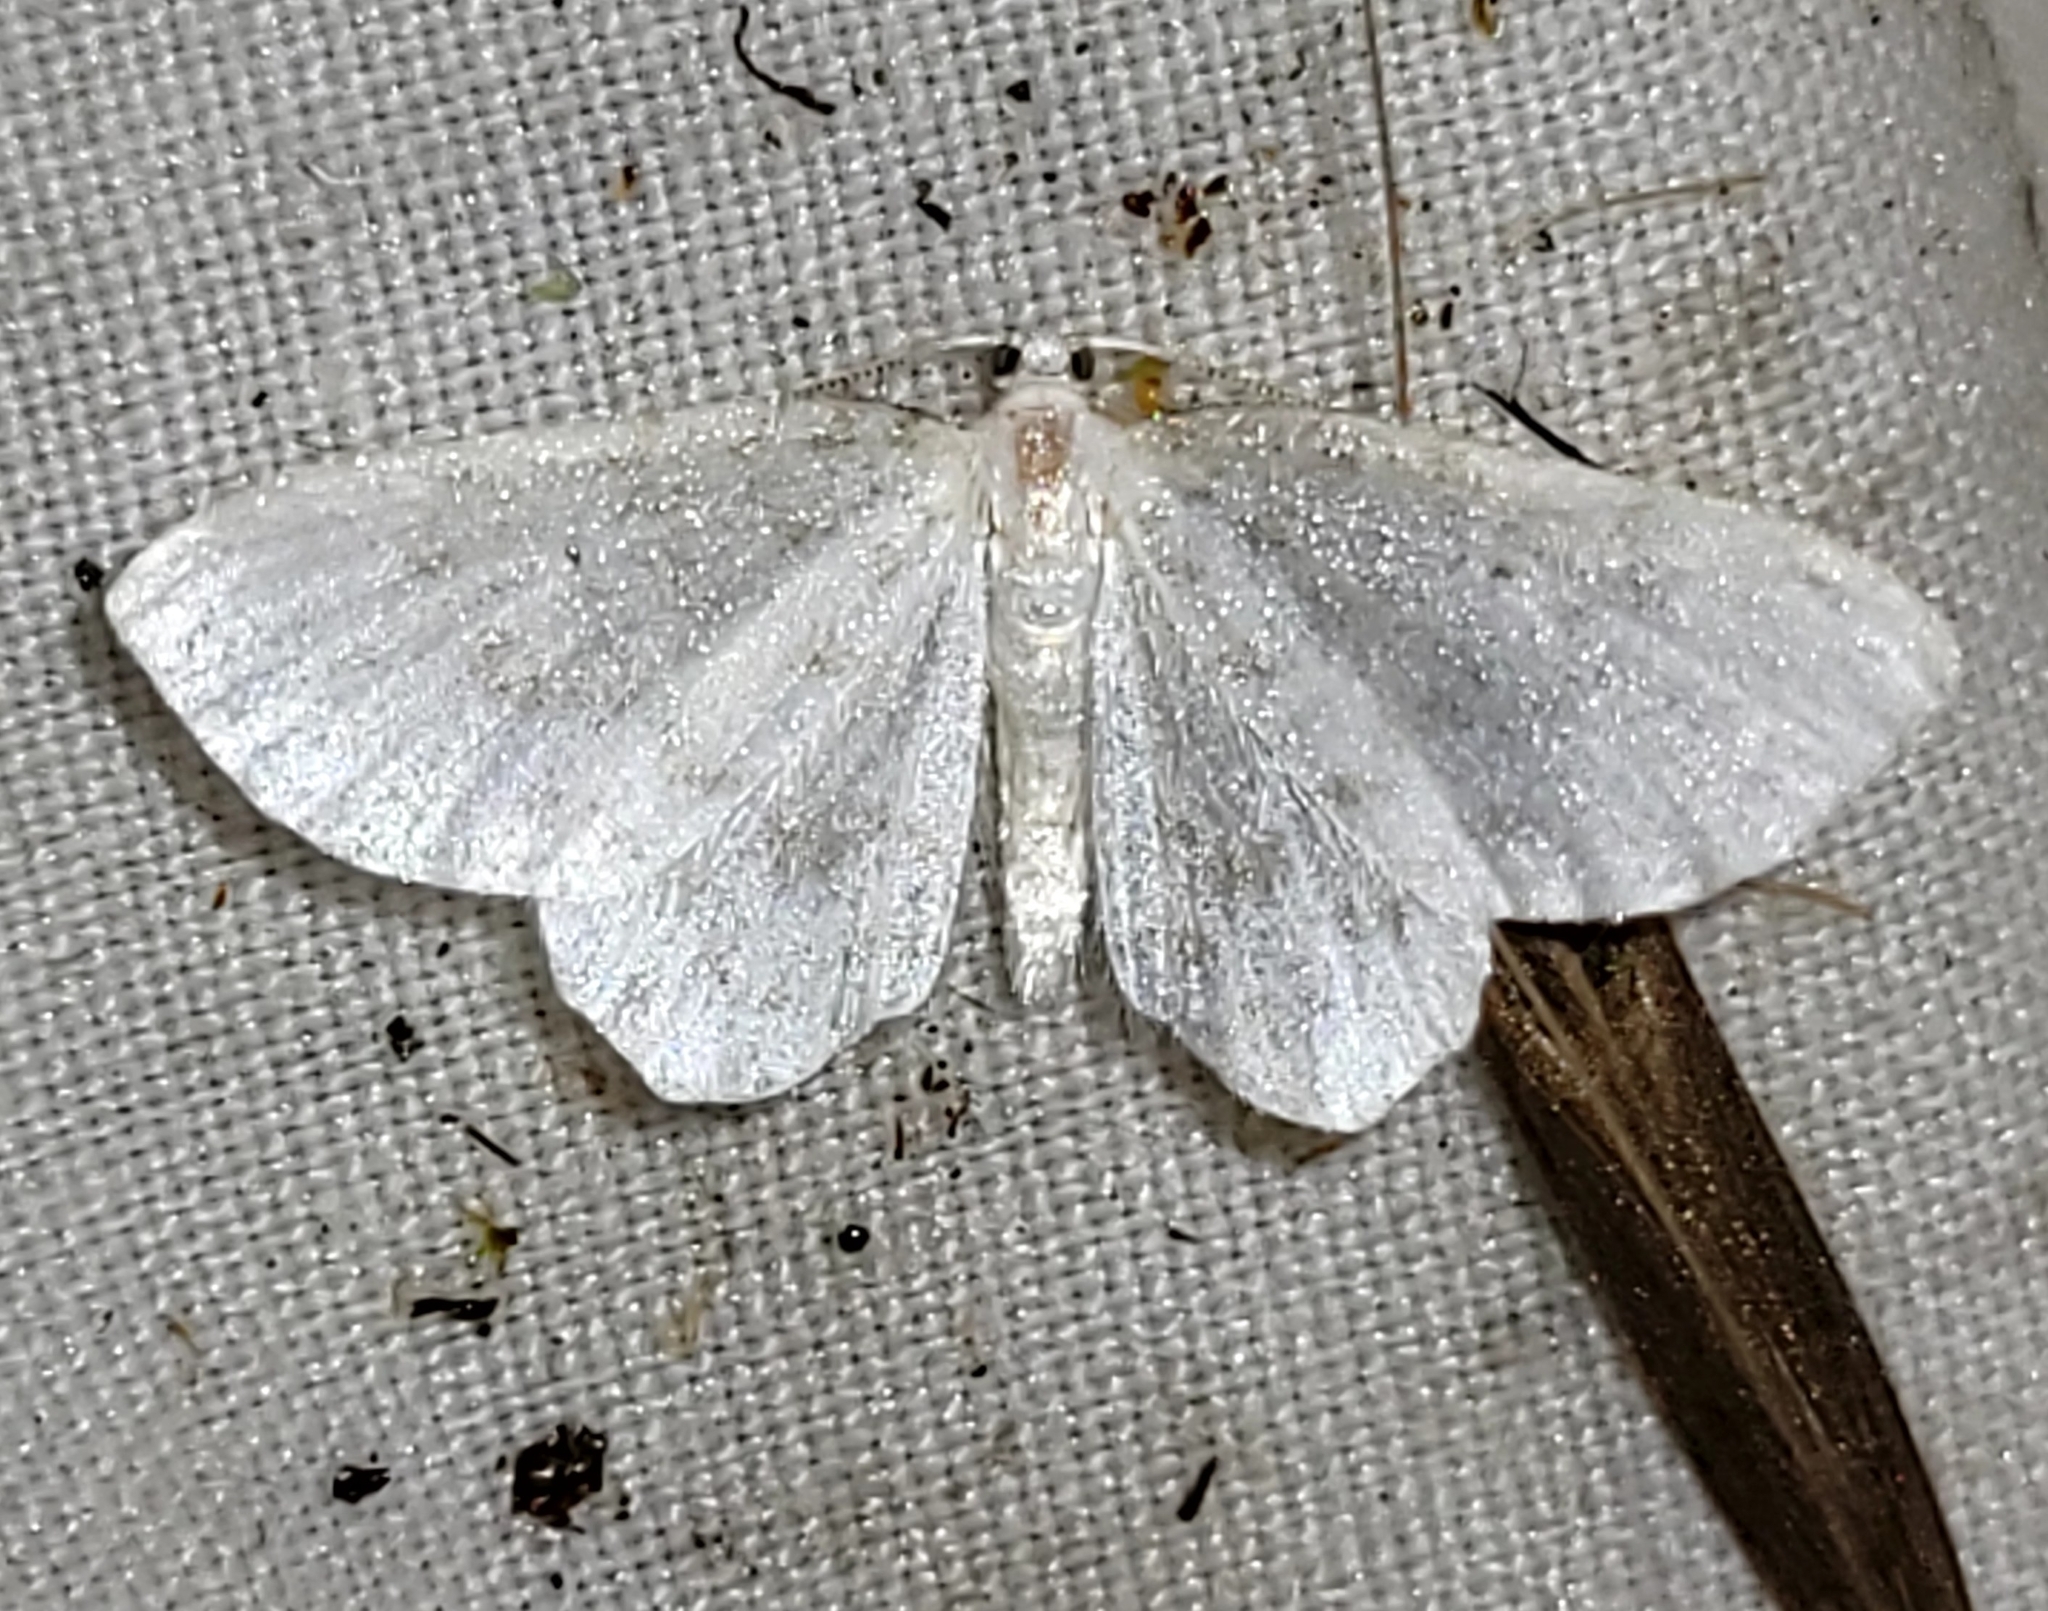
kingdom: Animalia
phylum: Arthropoda
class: Insecta
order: Lepidoptera
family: Geometridae
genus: Hydrelia
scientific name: Hydrelia albifera
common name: Fragile white carpet
